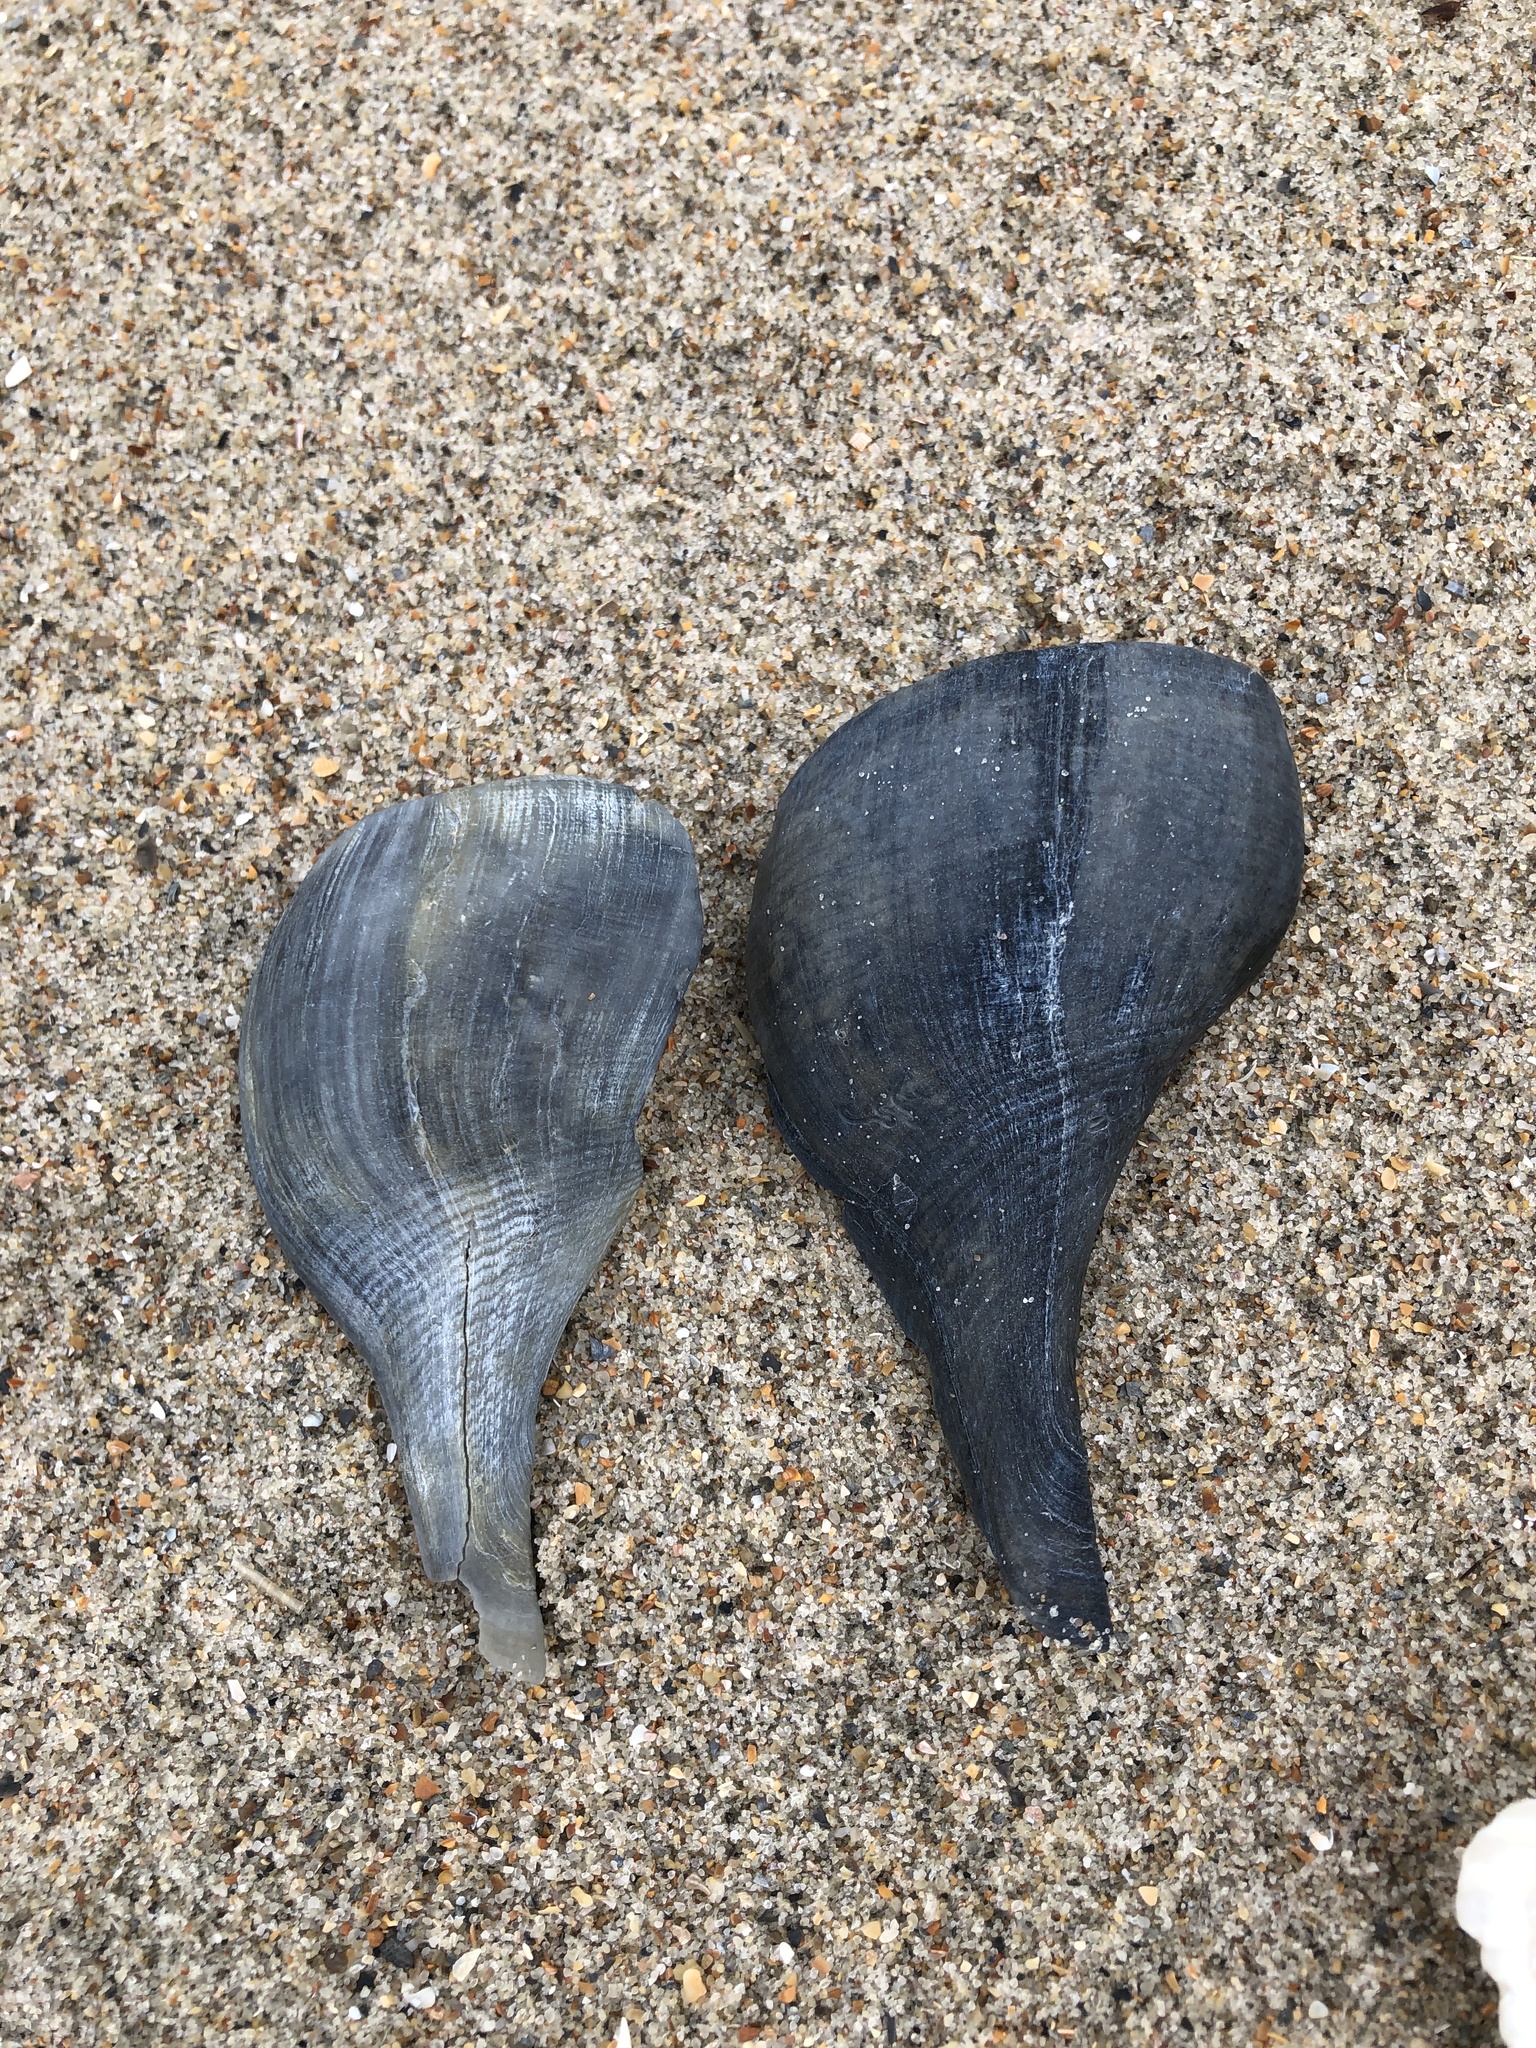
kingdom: Animalia
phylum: Mollusca
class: Gastropoda
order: Neogastropoda
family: Busyconidae
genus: Busycotypus
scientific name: Busycotypus canaliculatus
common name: Channeled whelk
